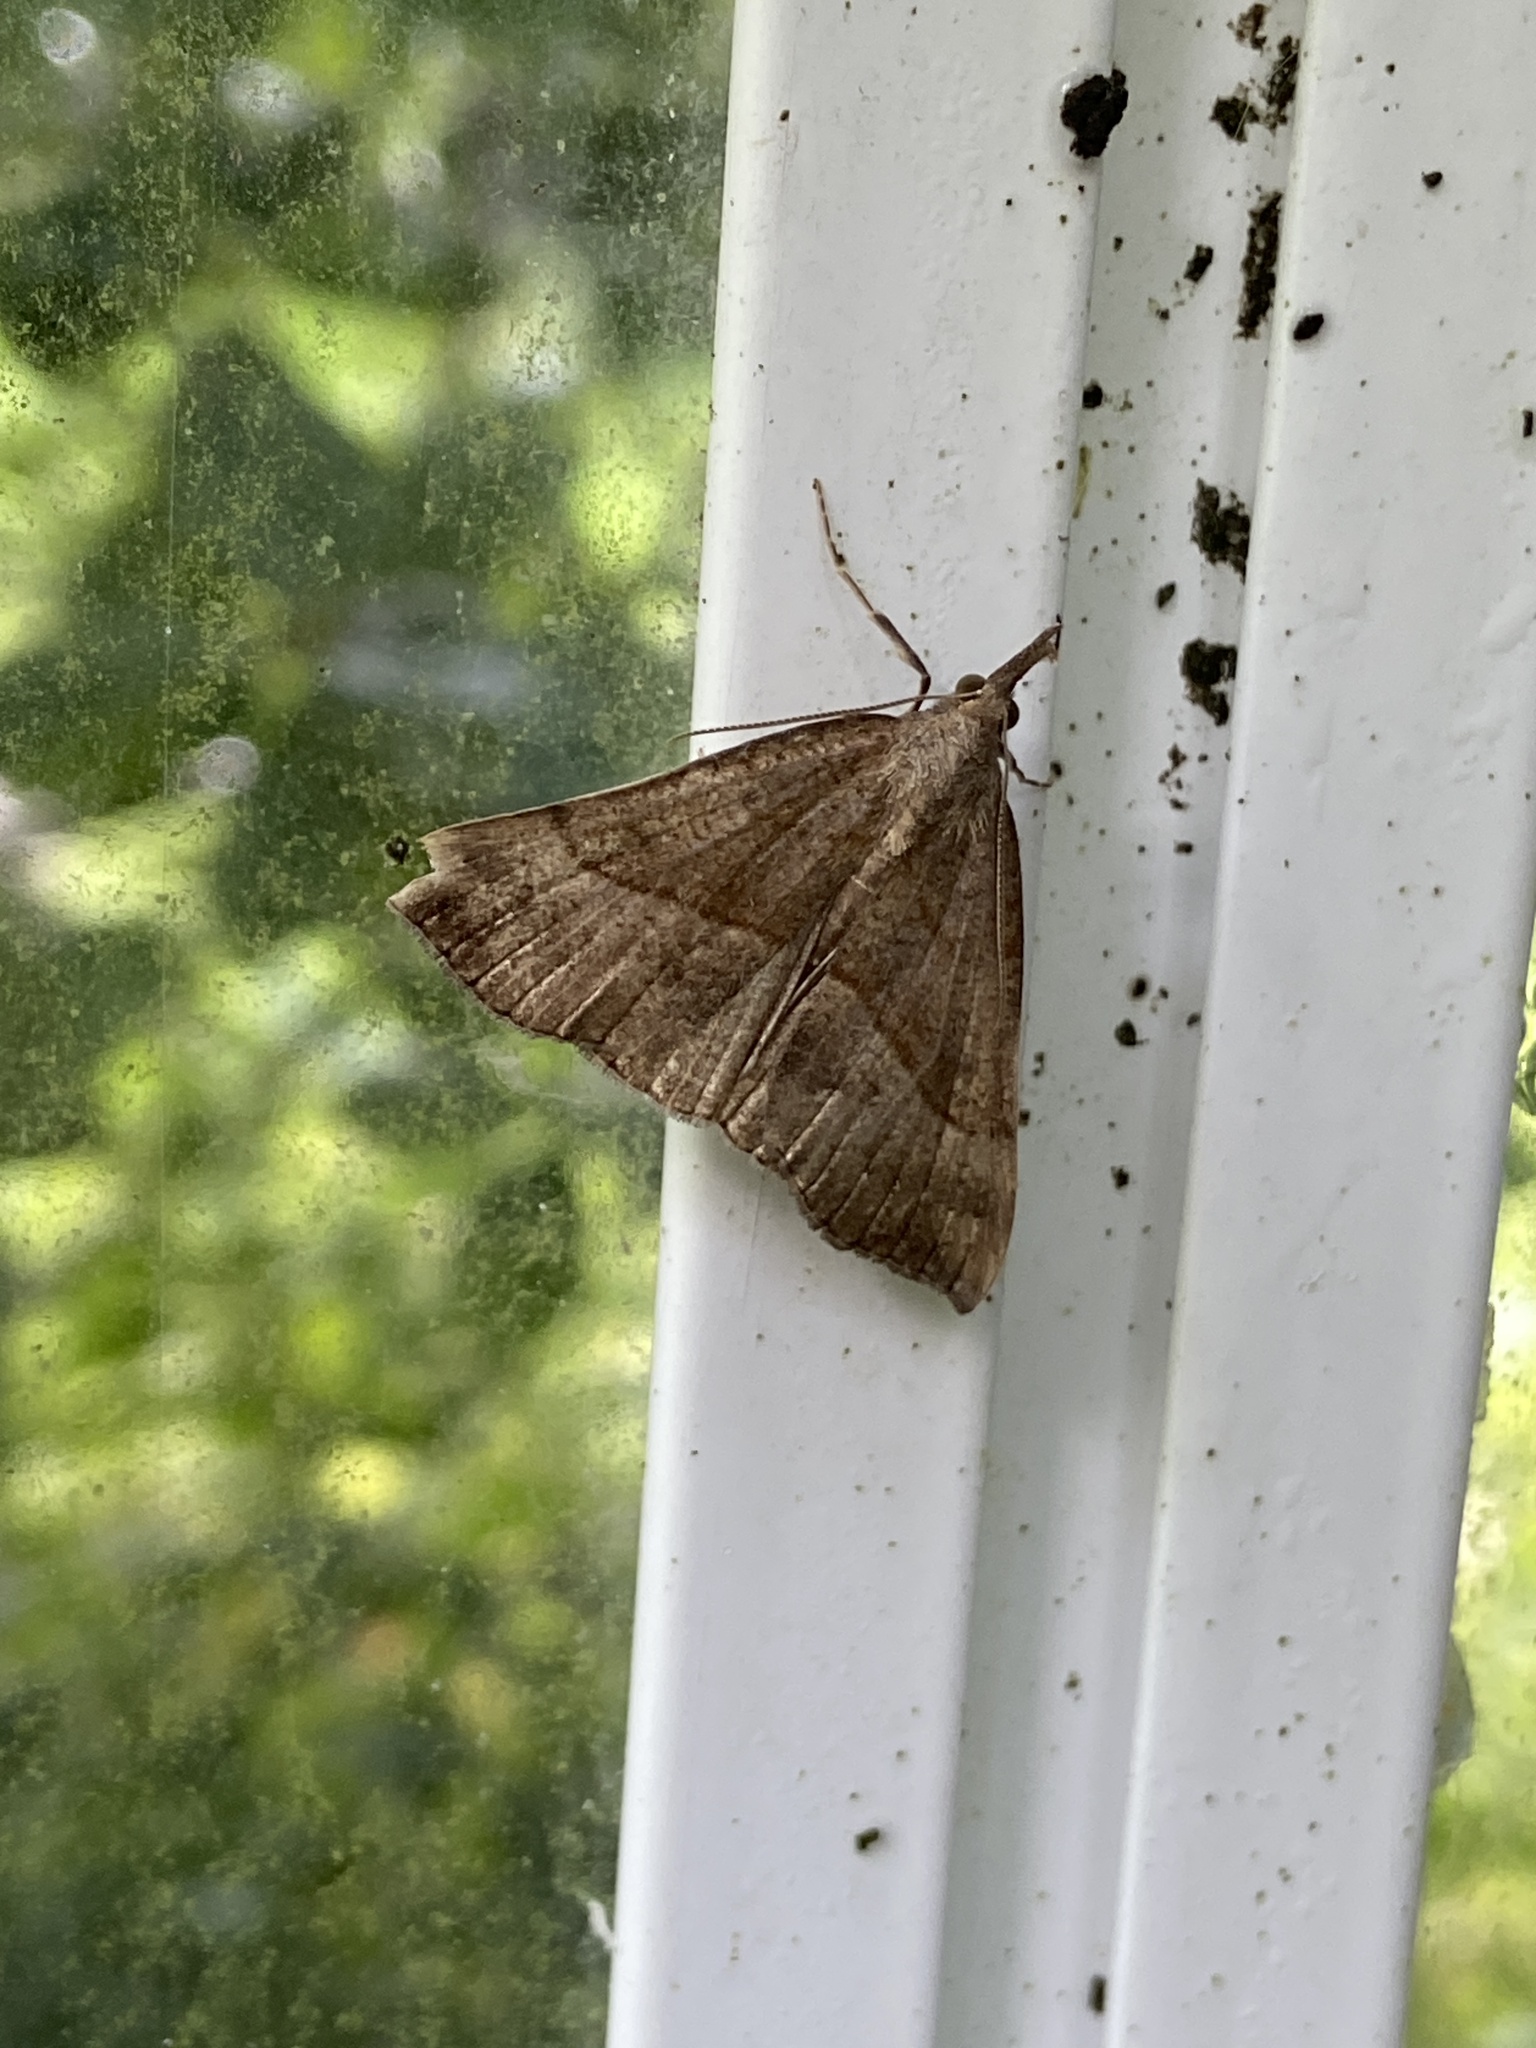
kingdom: Animalia
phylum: Arthropoda
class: Insecta
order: Lepidoptera
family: Erebidae
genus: Hypena
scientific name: Hypena proboscidalis
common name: Snout
